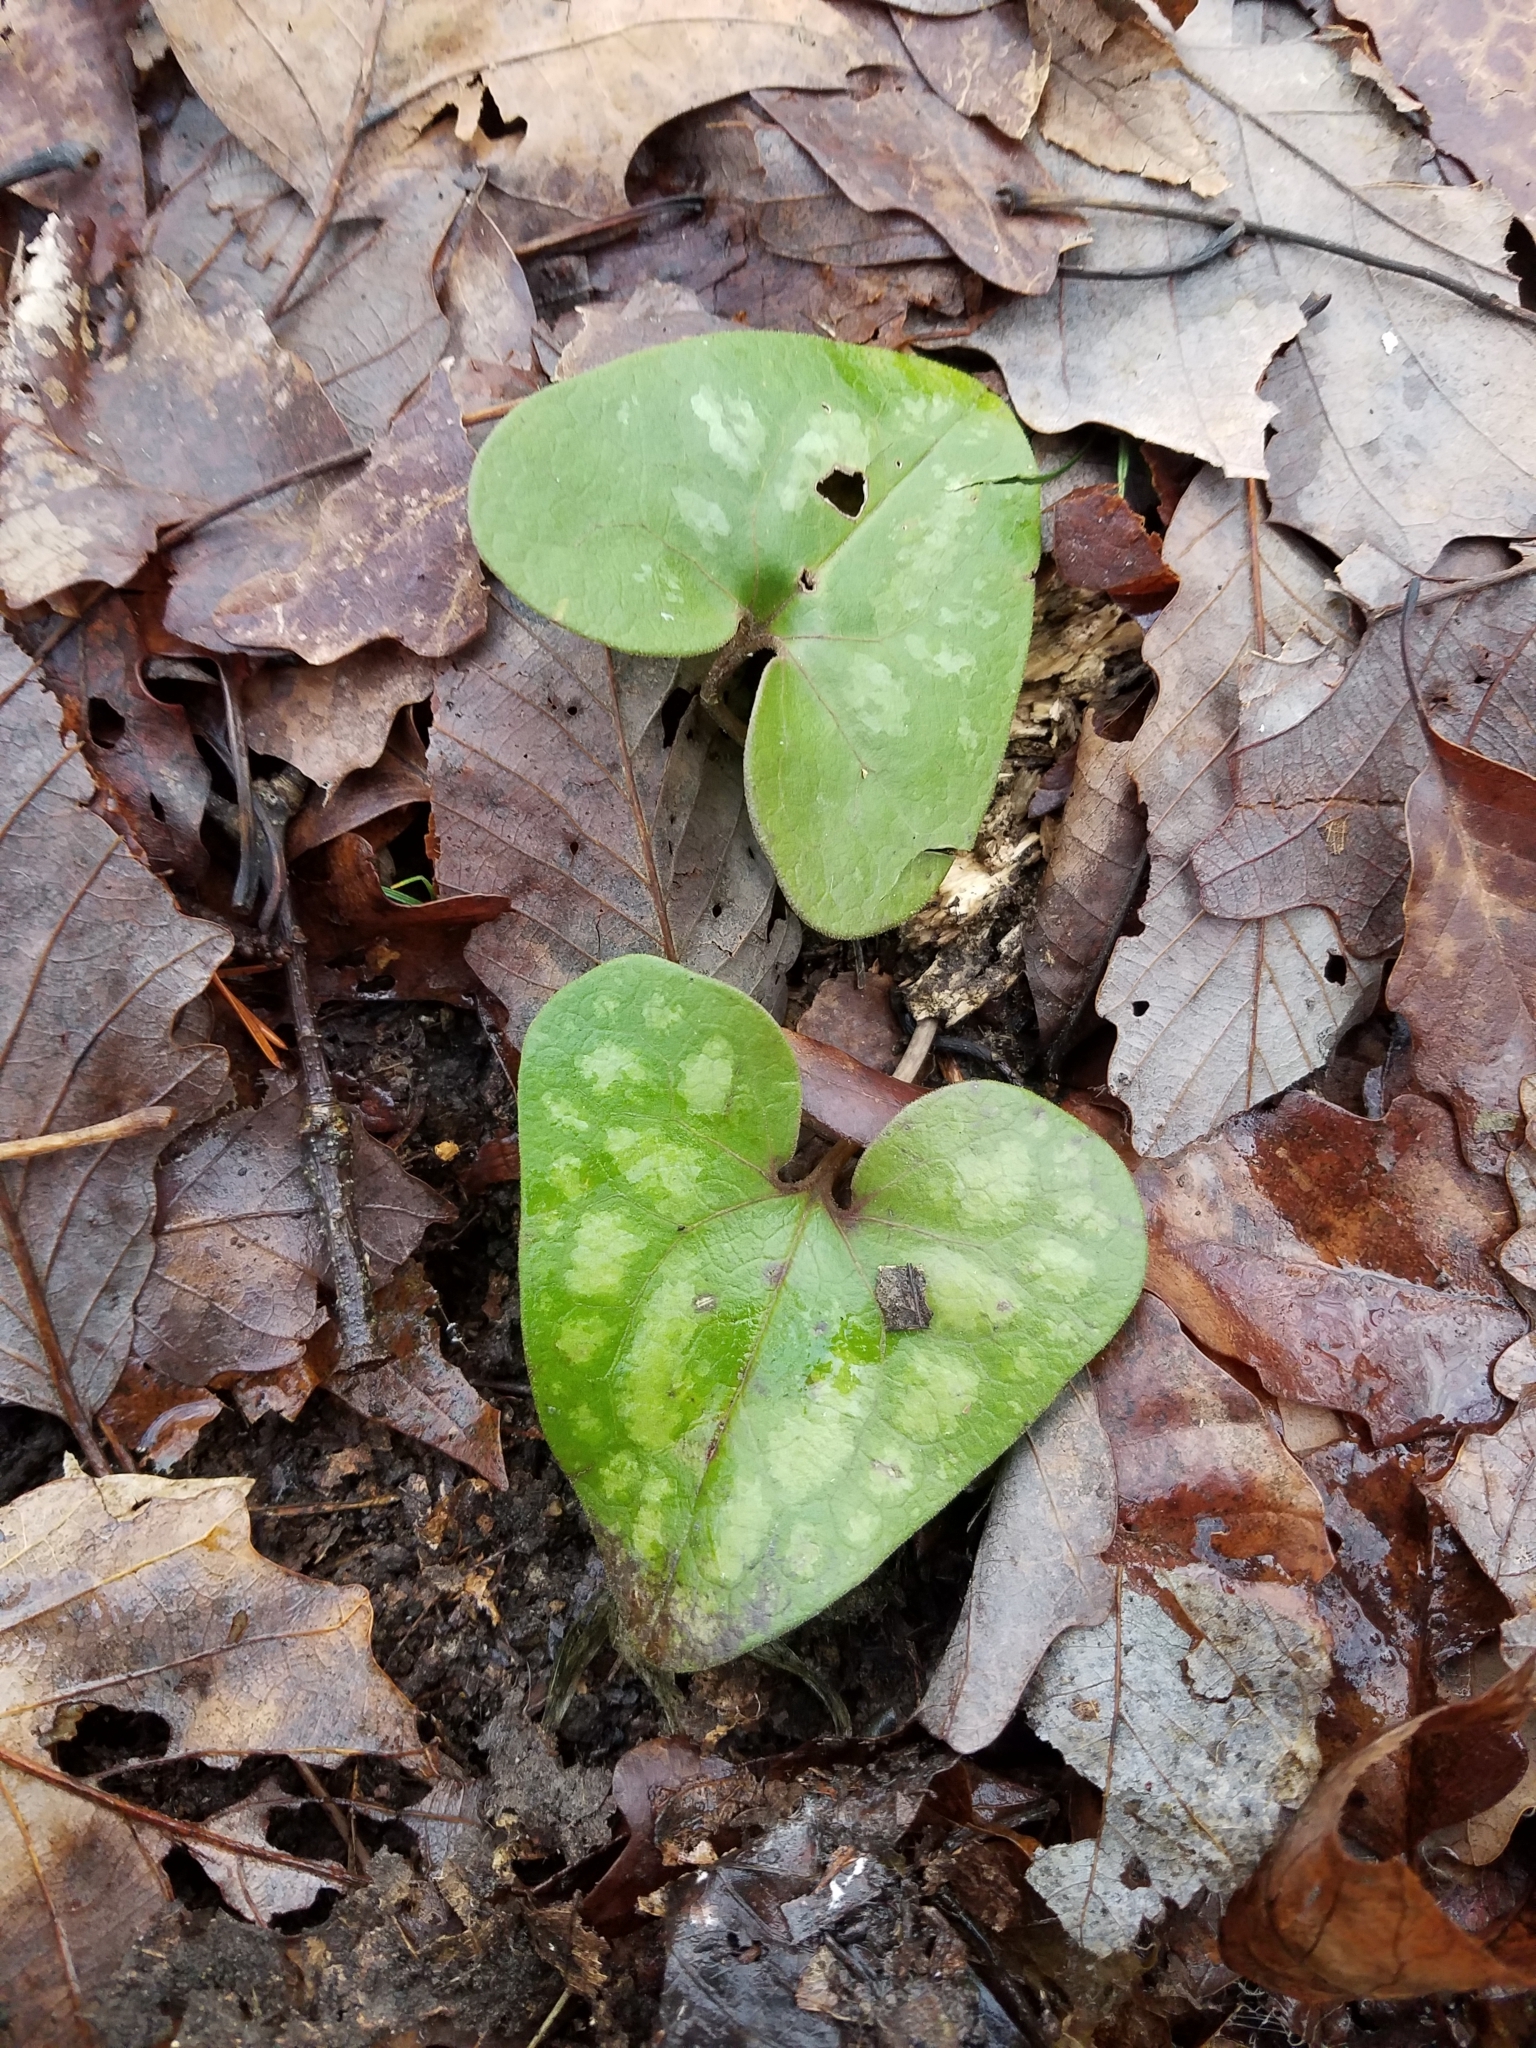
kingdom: Plantae
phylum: Tracheophyta
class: Magnoliopsida
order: Piperales
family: Aristolochiaceae
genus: Hexastylis
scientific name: Hexastylis arifolia
